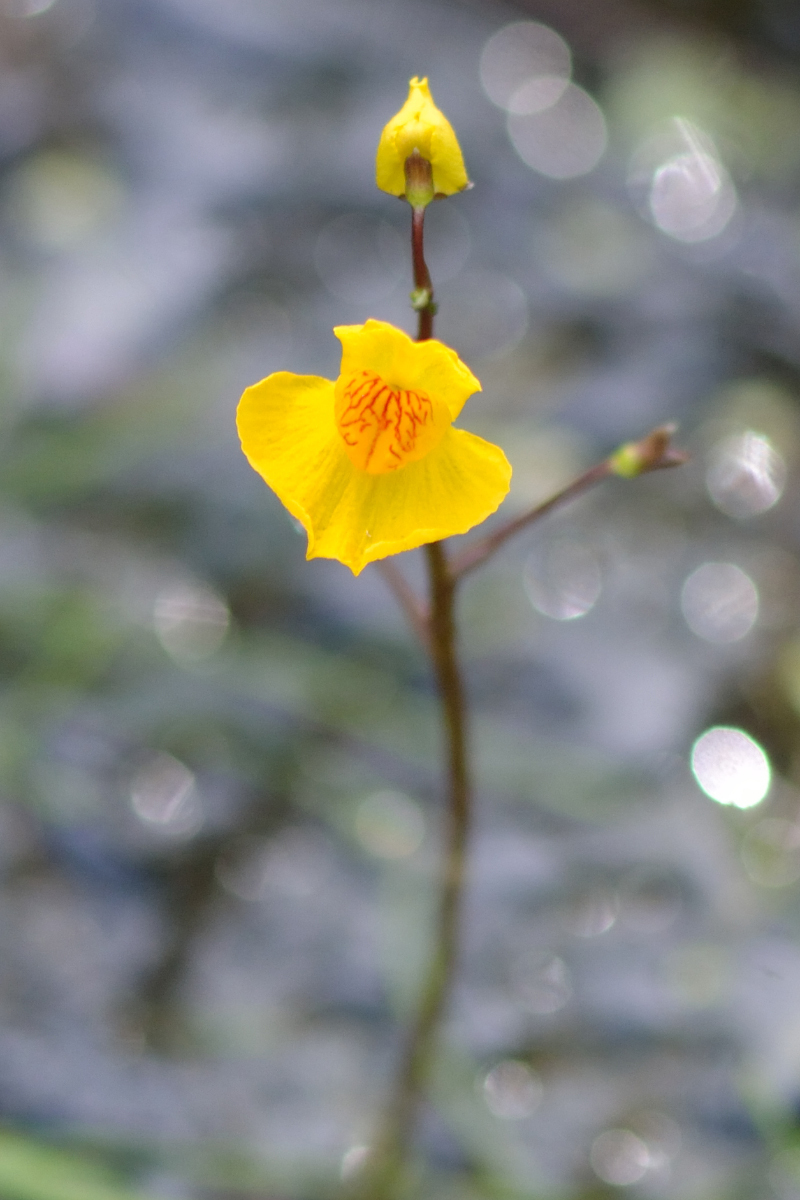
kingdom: Plantae
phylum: Tracheophyta
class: Magnoliopsida
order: Lamiales
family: Lentibulariaceae
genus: Utricularia
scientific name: Utricularia australis
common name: Bladderwort
